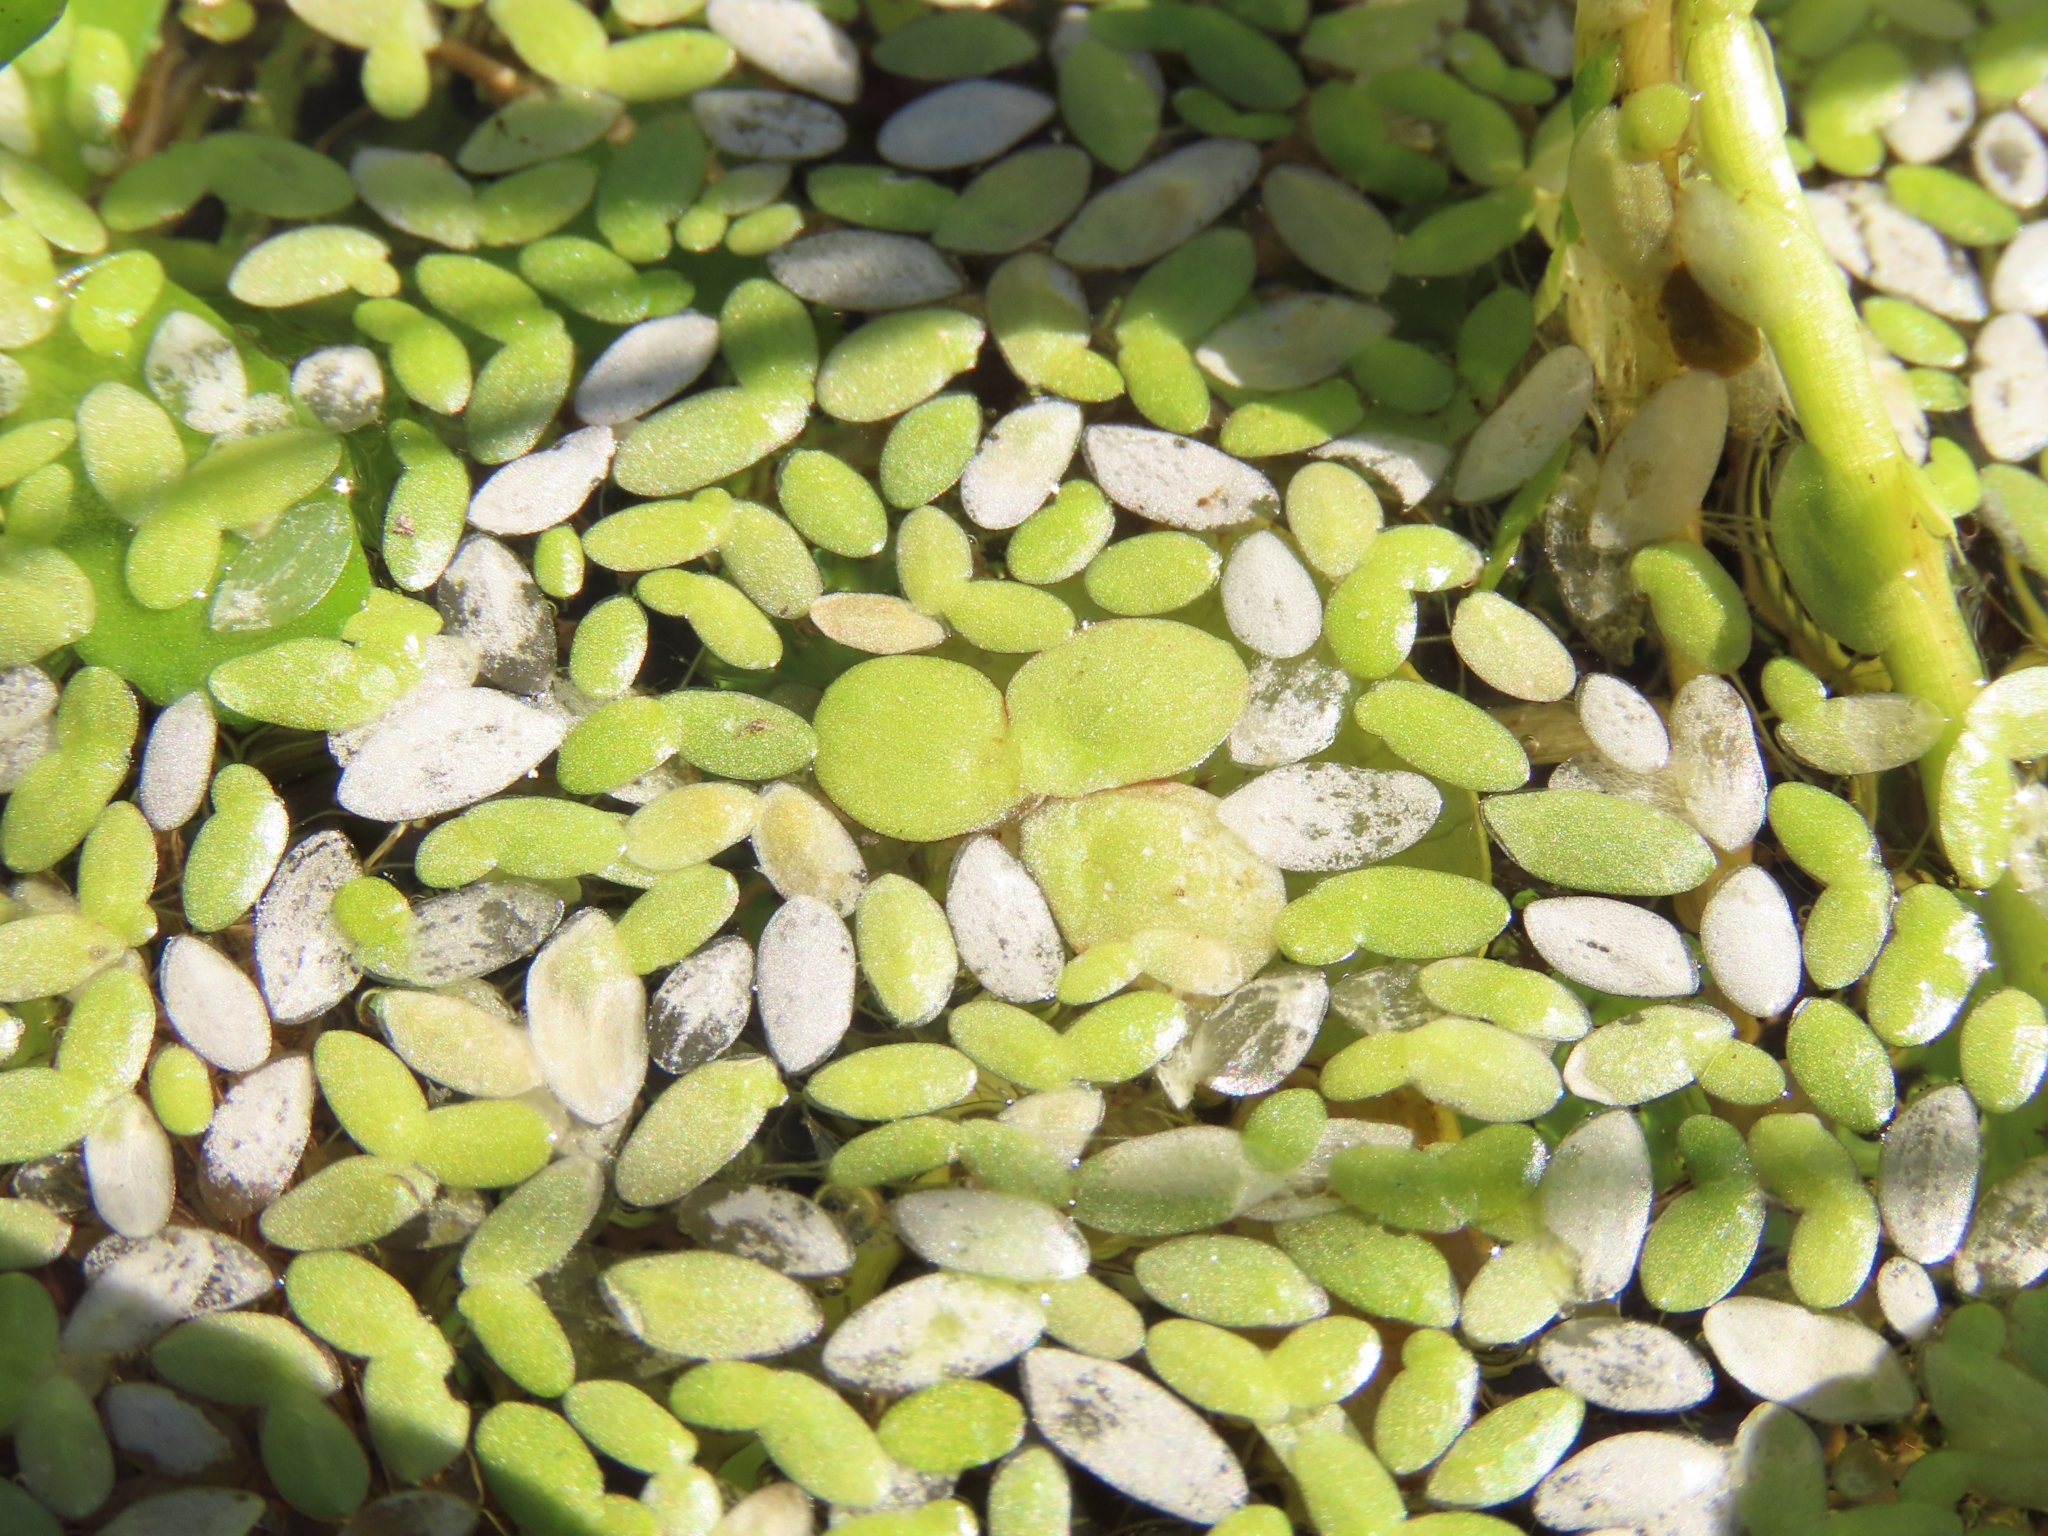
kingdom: Plantae
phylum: Tracheophyta
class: Liliopsida
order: Alismatales
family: Araceae
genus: Spirodela
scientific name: Spirodela polyrhiza
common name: Great duckweed
